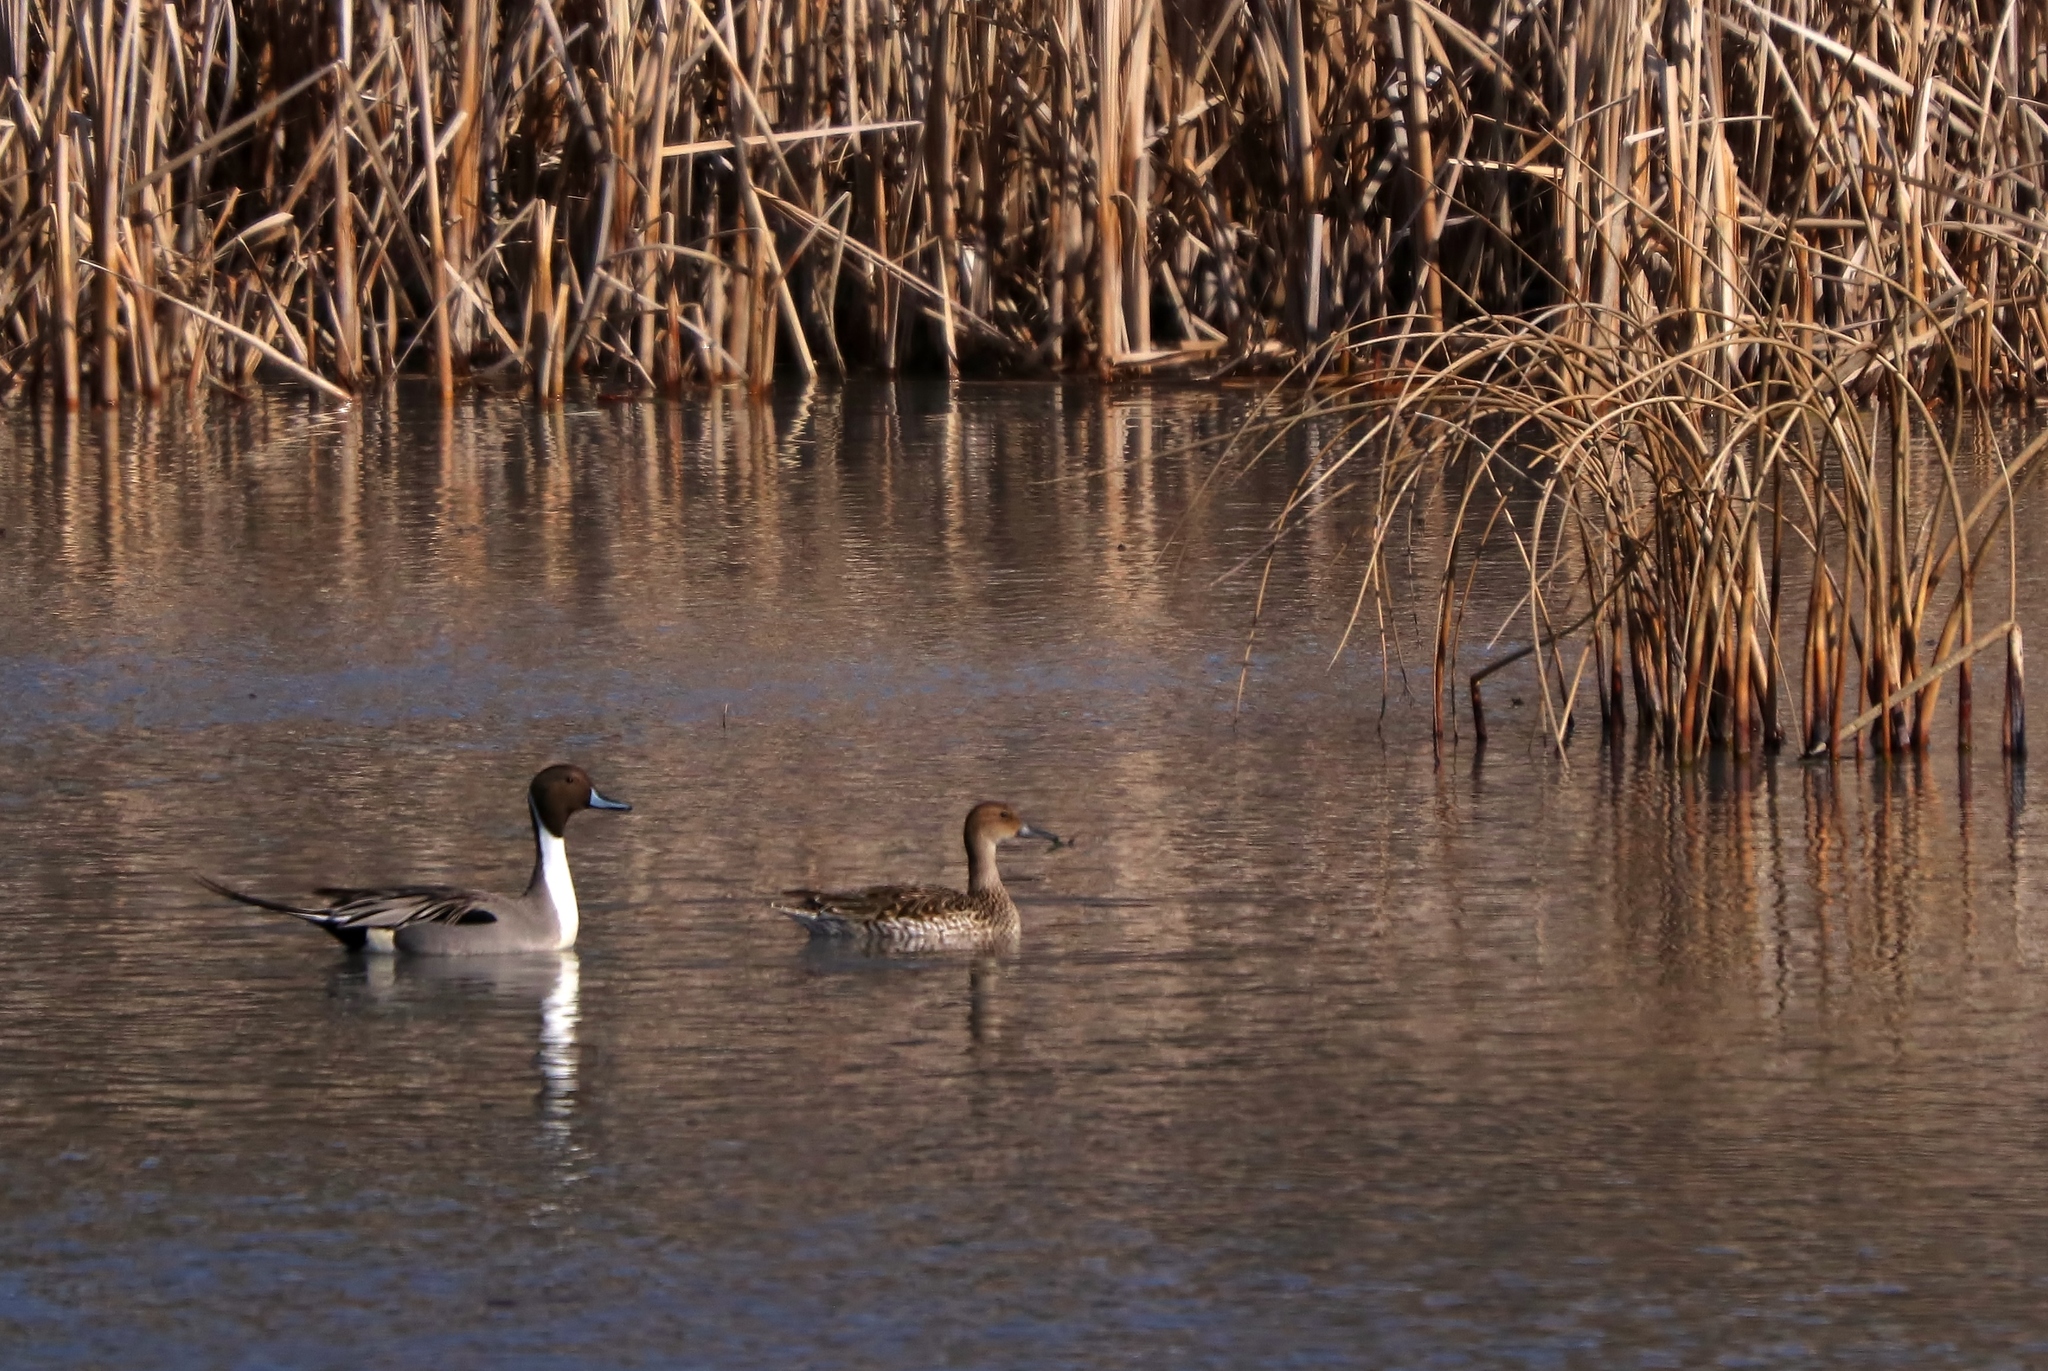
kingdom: Animalia
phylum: Chordata
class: Aves
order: Anseriformes
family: Anatidae
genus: Anas
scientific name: Anas acuta
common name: Northern pintail
